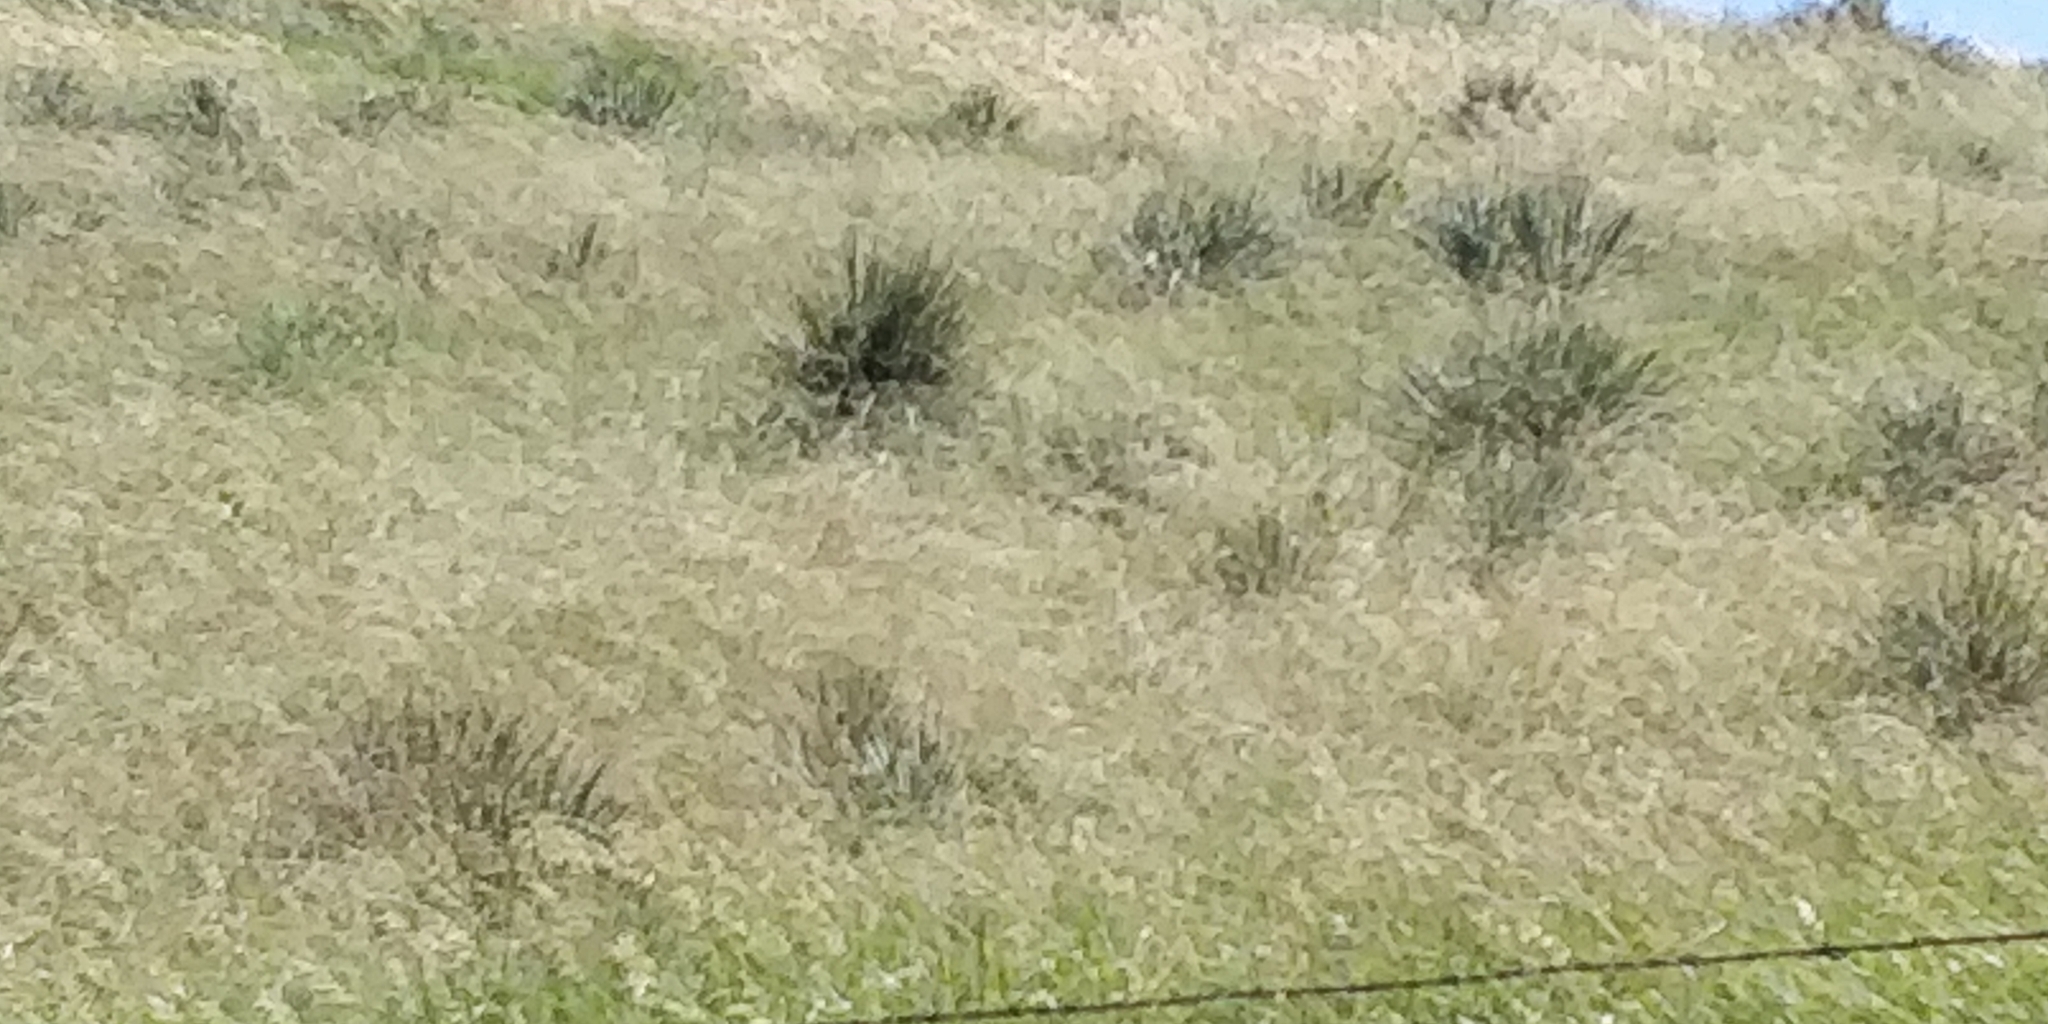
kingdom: Plantae
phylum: Tracheophyta
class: Liliopsida
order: Asparagales
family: Asparagaceae
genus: Yucca
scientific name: Yucca glauca
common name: Great plains yucca
